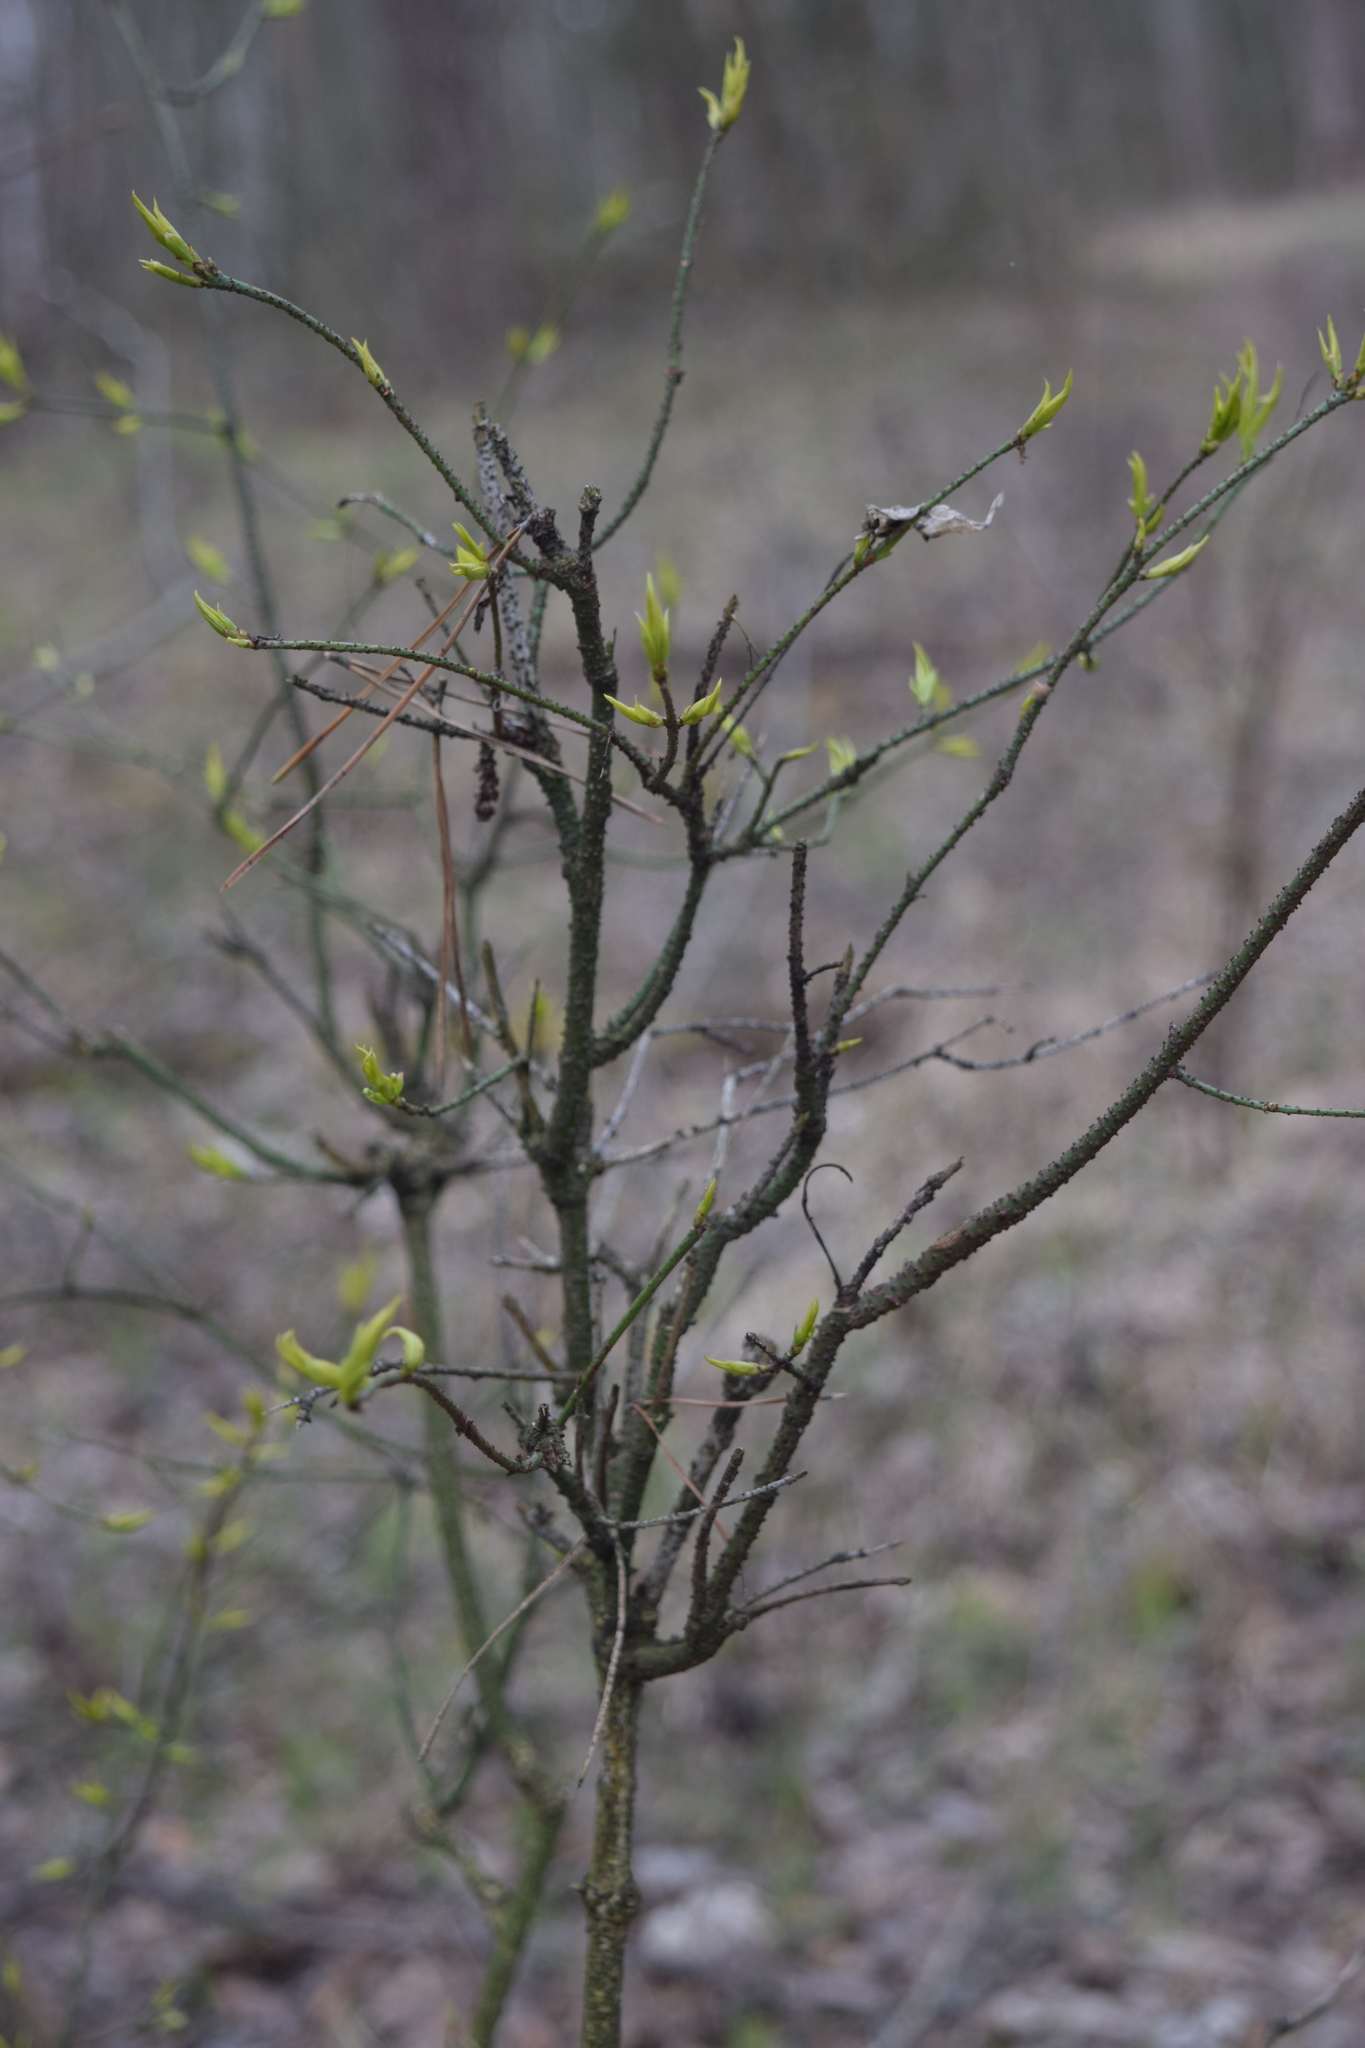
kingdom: Plantae
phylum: Tracheophyta
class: Magnoliopsida
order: Celastrales
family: Celastraceae
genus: Euonymus
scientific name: Euonymus verrucosus
